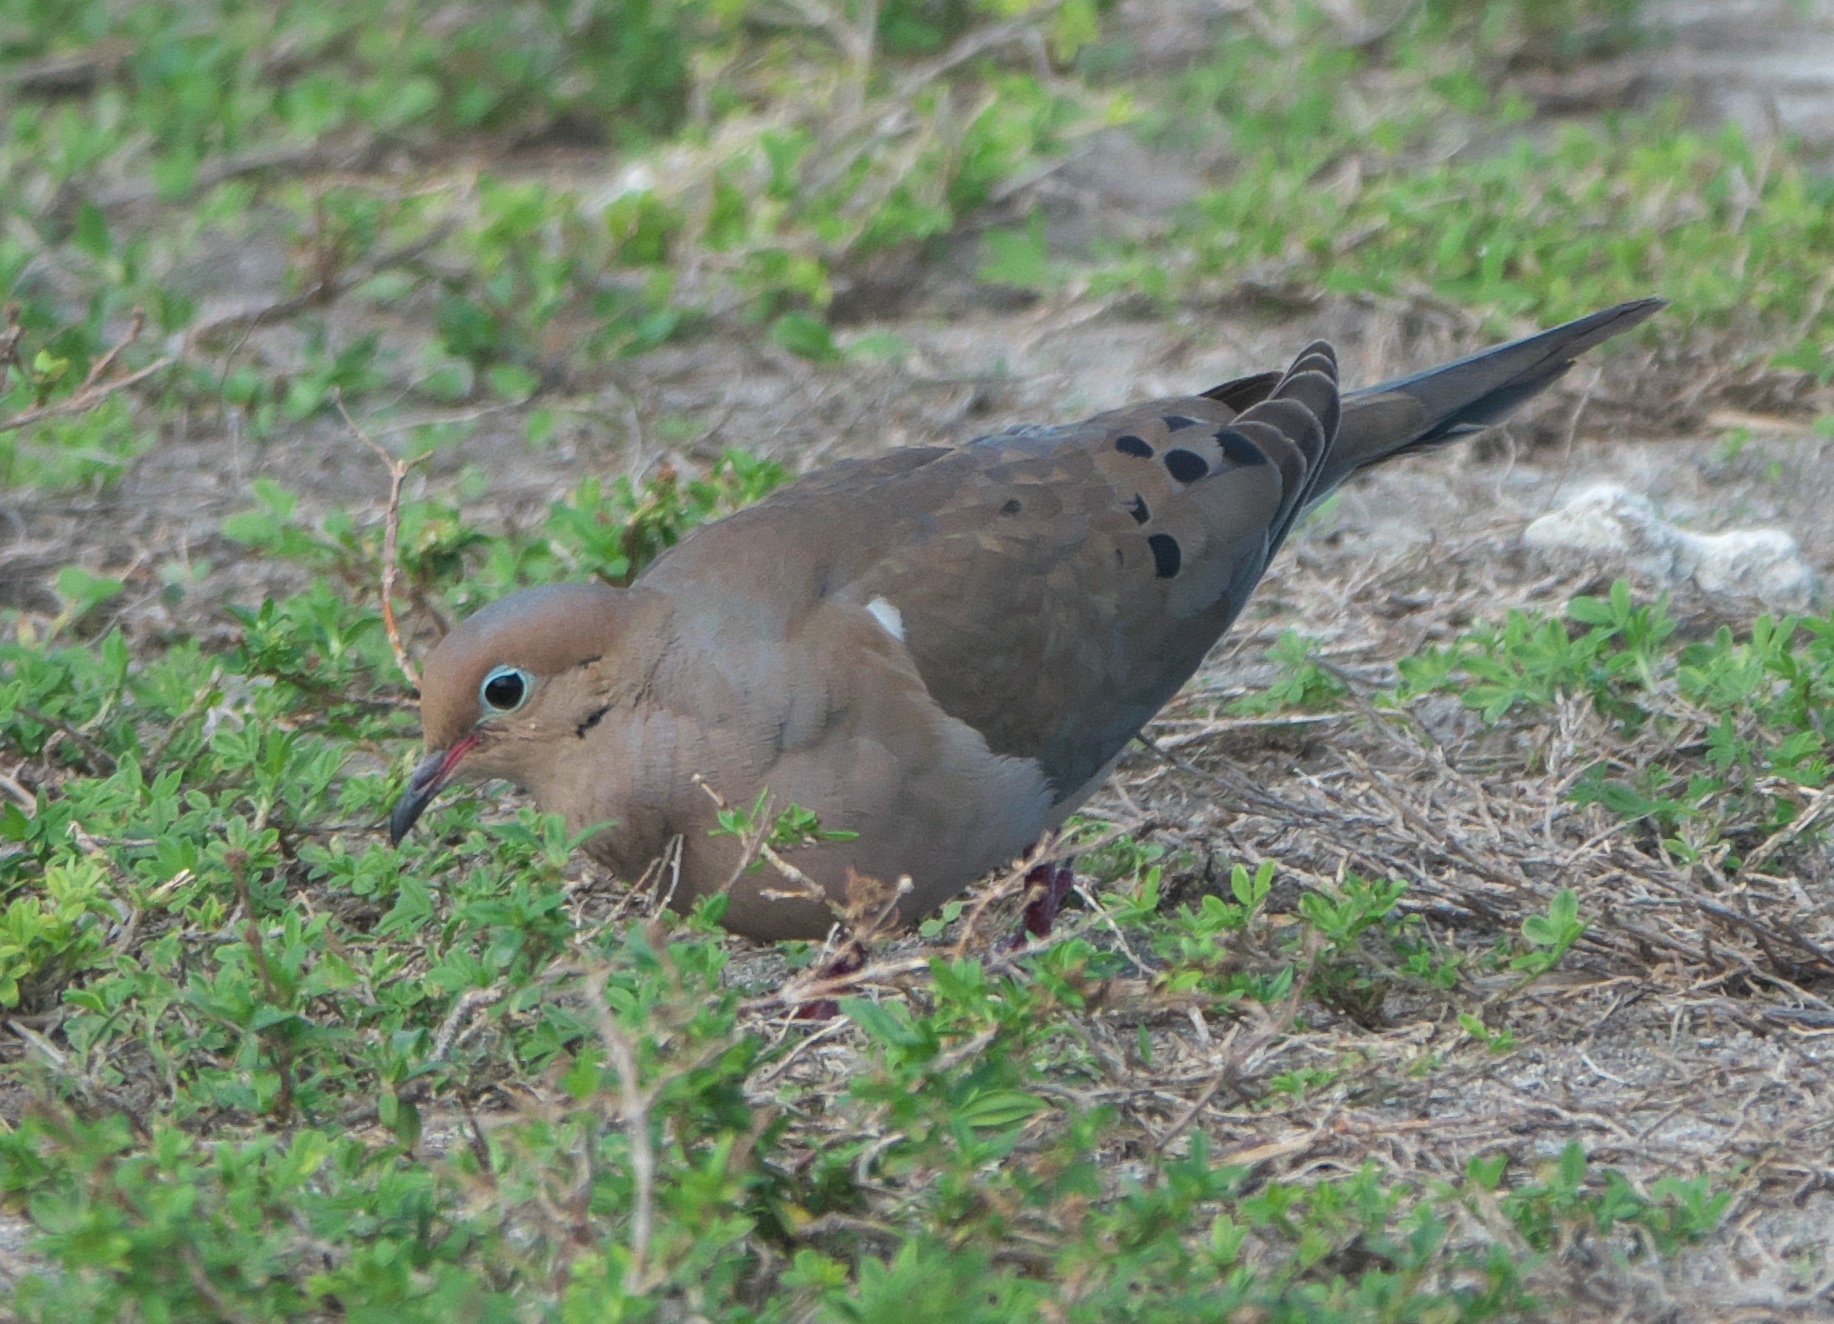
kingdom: Animalia
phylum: Chordata
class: Aves
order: Columbiformes
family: Columbidae
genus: Zenaida
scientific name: Zenaida macroura
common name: Mourning dove
